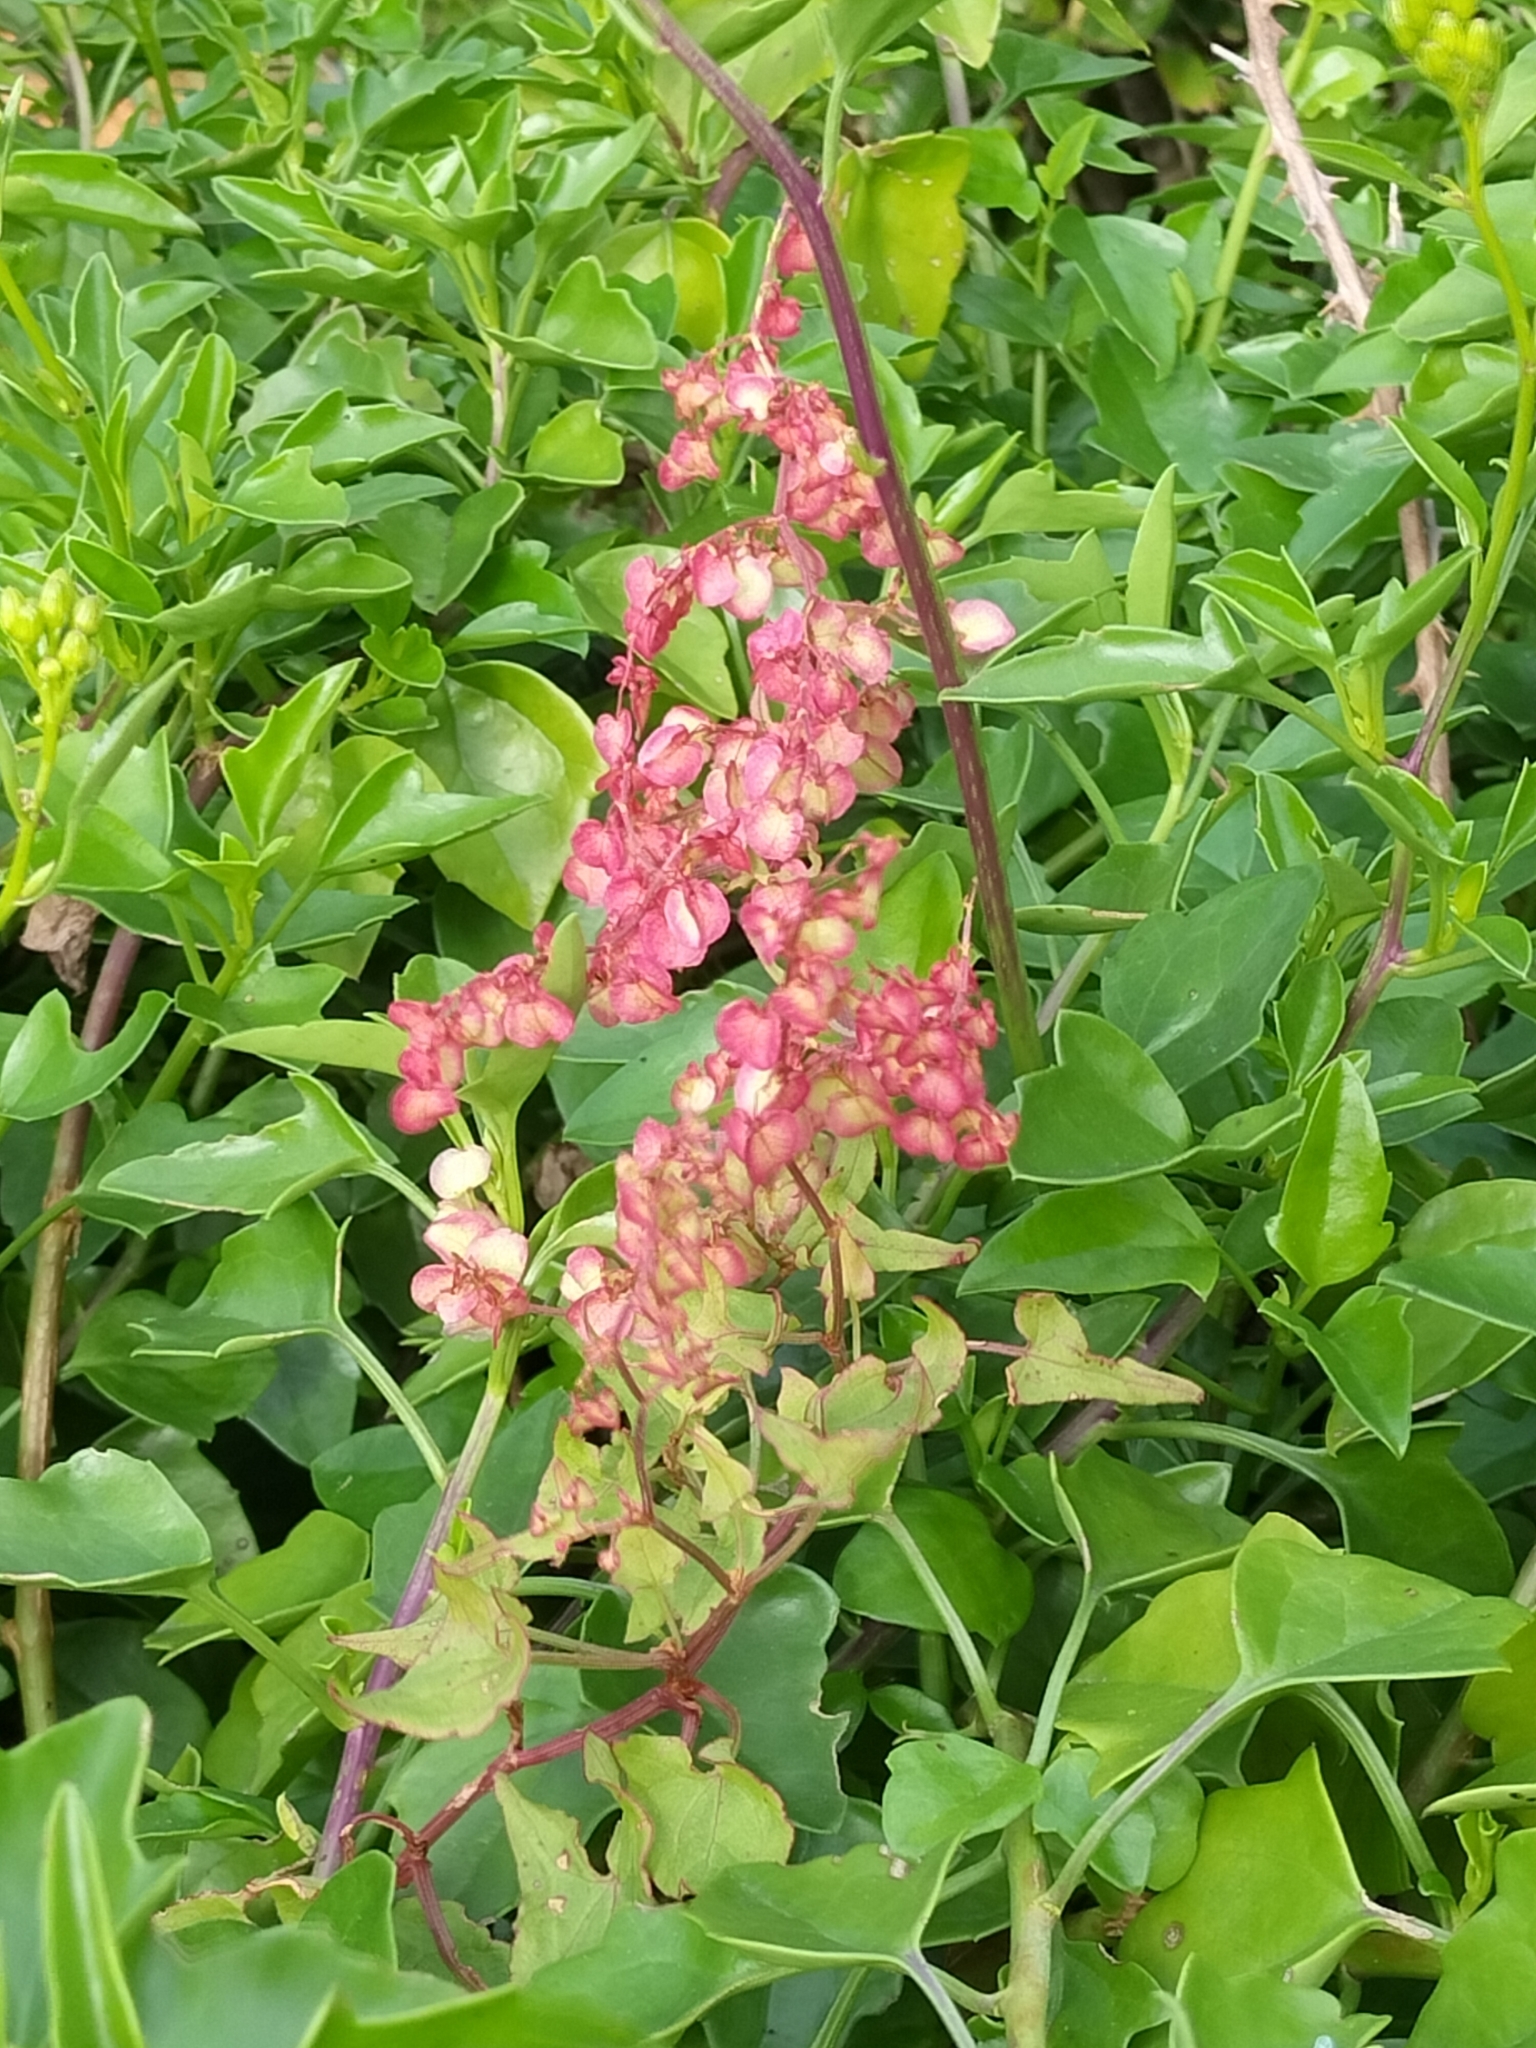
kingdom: Plantae
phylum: Tracheophyta
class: Magnoliopsida
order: Caryophyllales
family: Polygonaceae
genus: Rumex
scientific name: Rumex sagittatus
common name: Climbing dock
